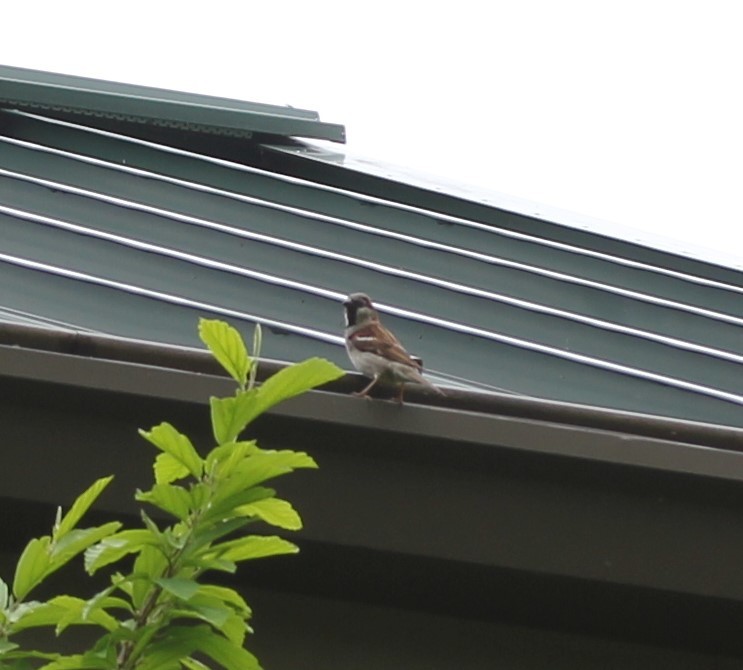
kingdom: Animalia
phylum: Chordata
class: Aves
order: Passeriformes
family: Passeridae
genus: Passer
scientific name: Passer domesticus
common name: House sparrow
